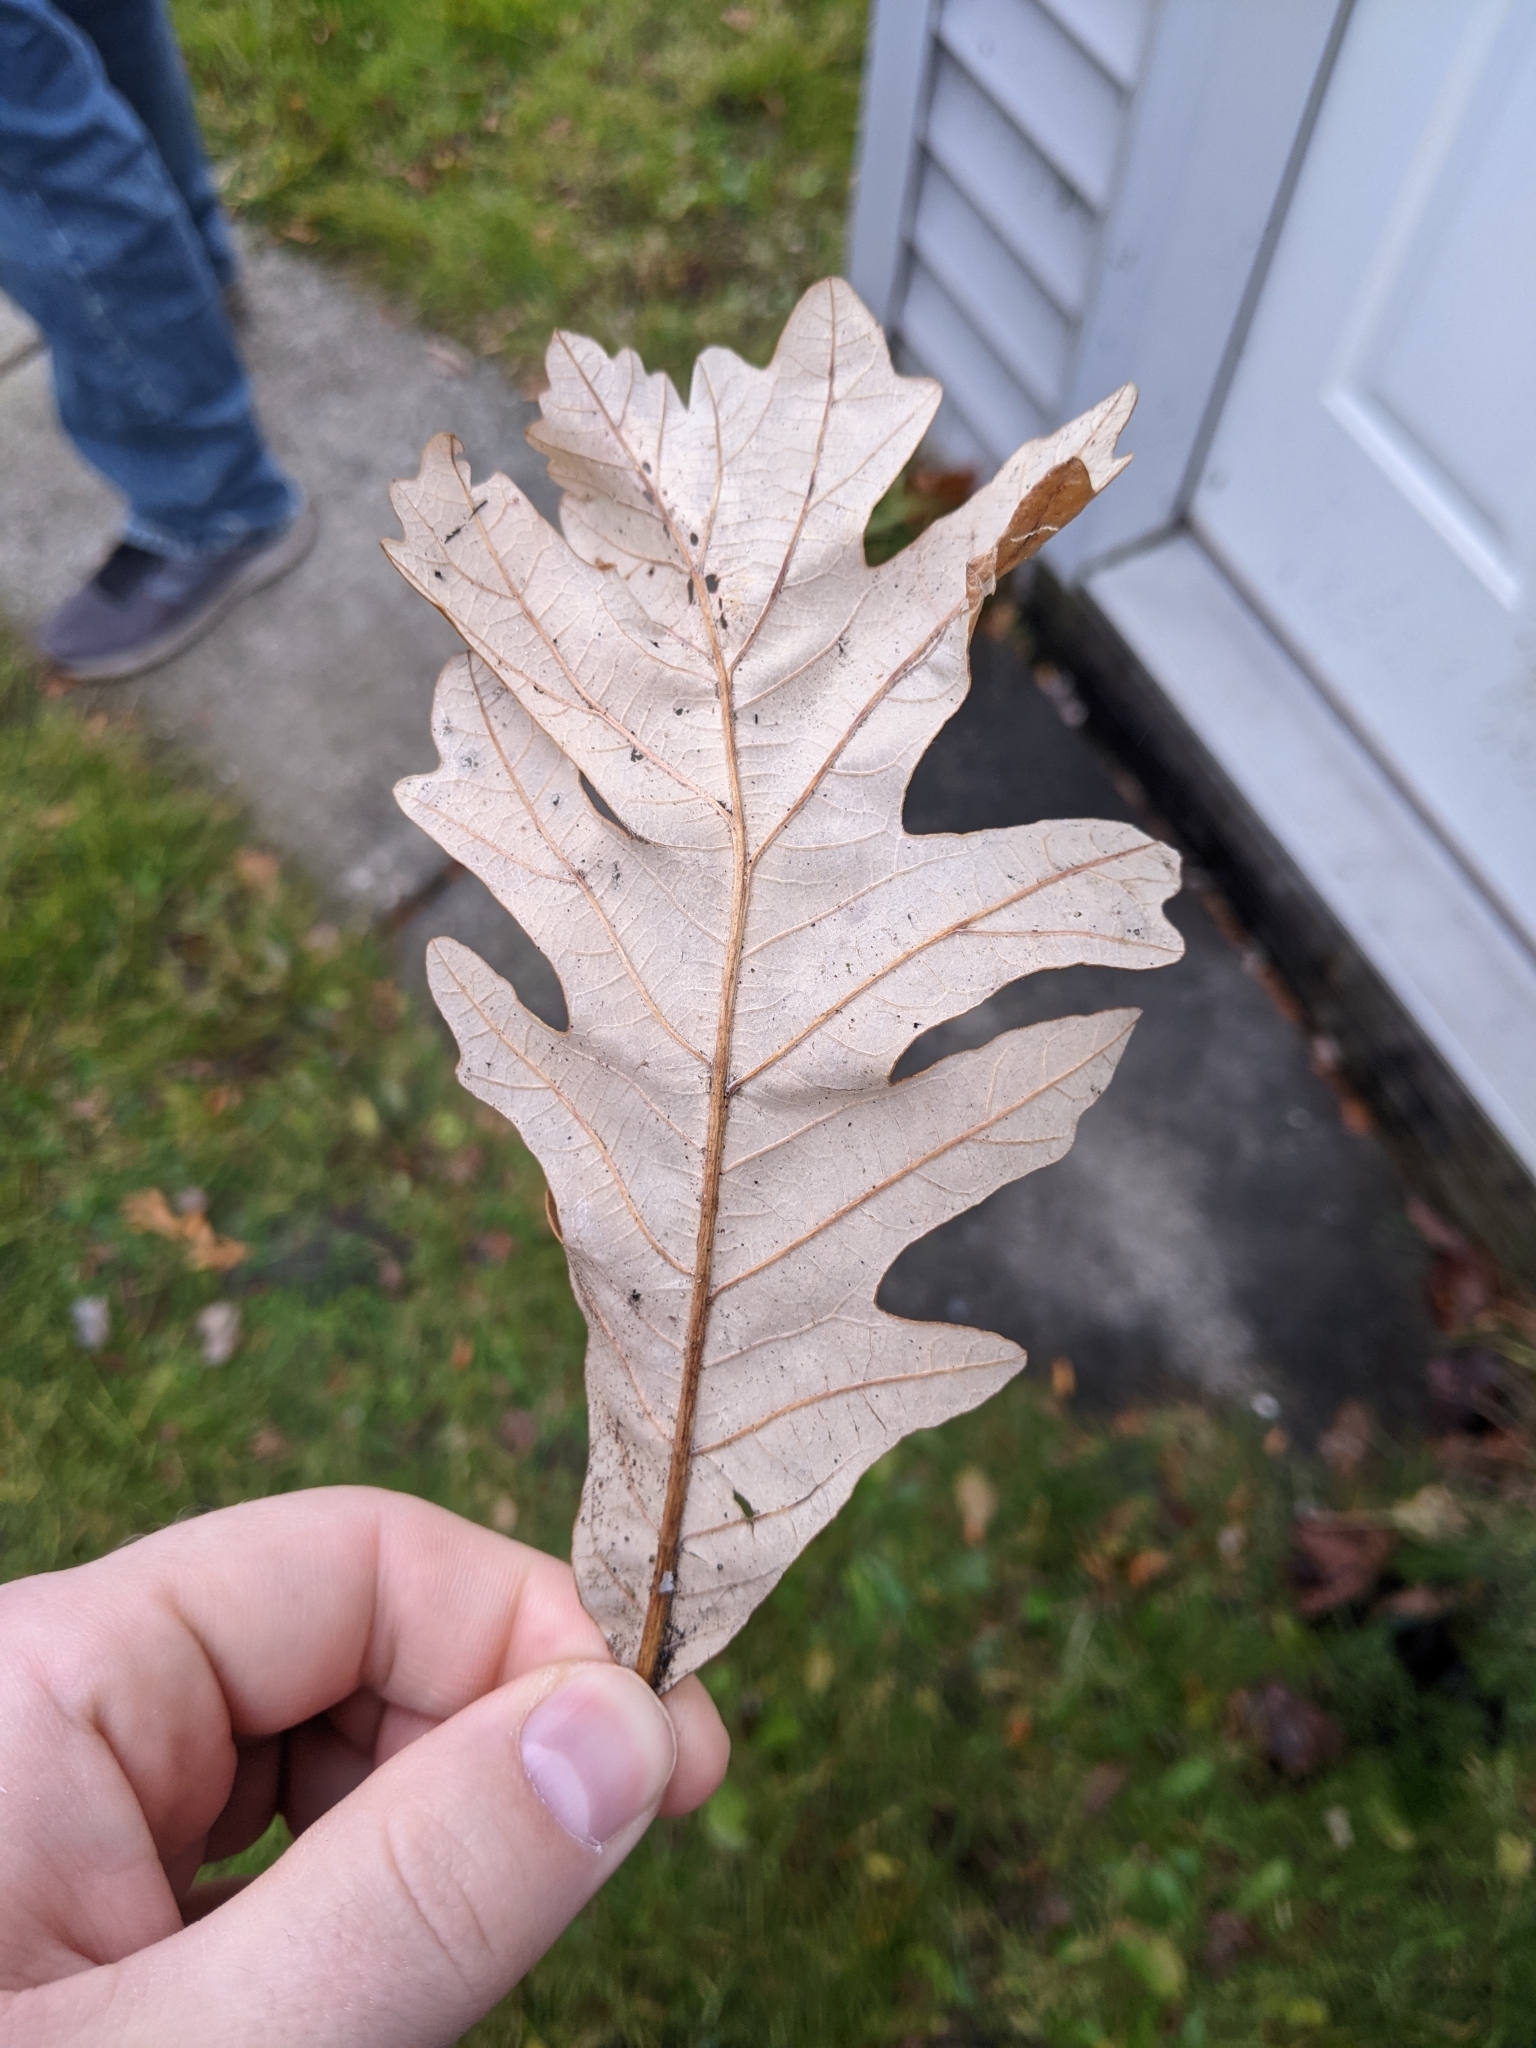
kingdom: Plantae
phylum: Tracheophyta
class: Magnoliopsida
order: Fagales
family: Fagaceae
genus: Quercus
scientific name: Quercus alba
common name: White oak
